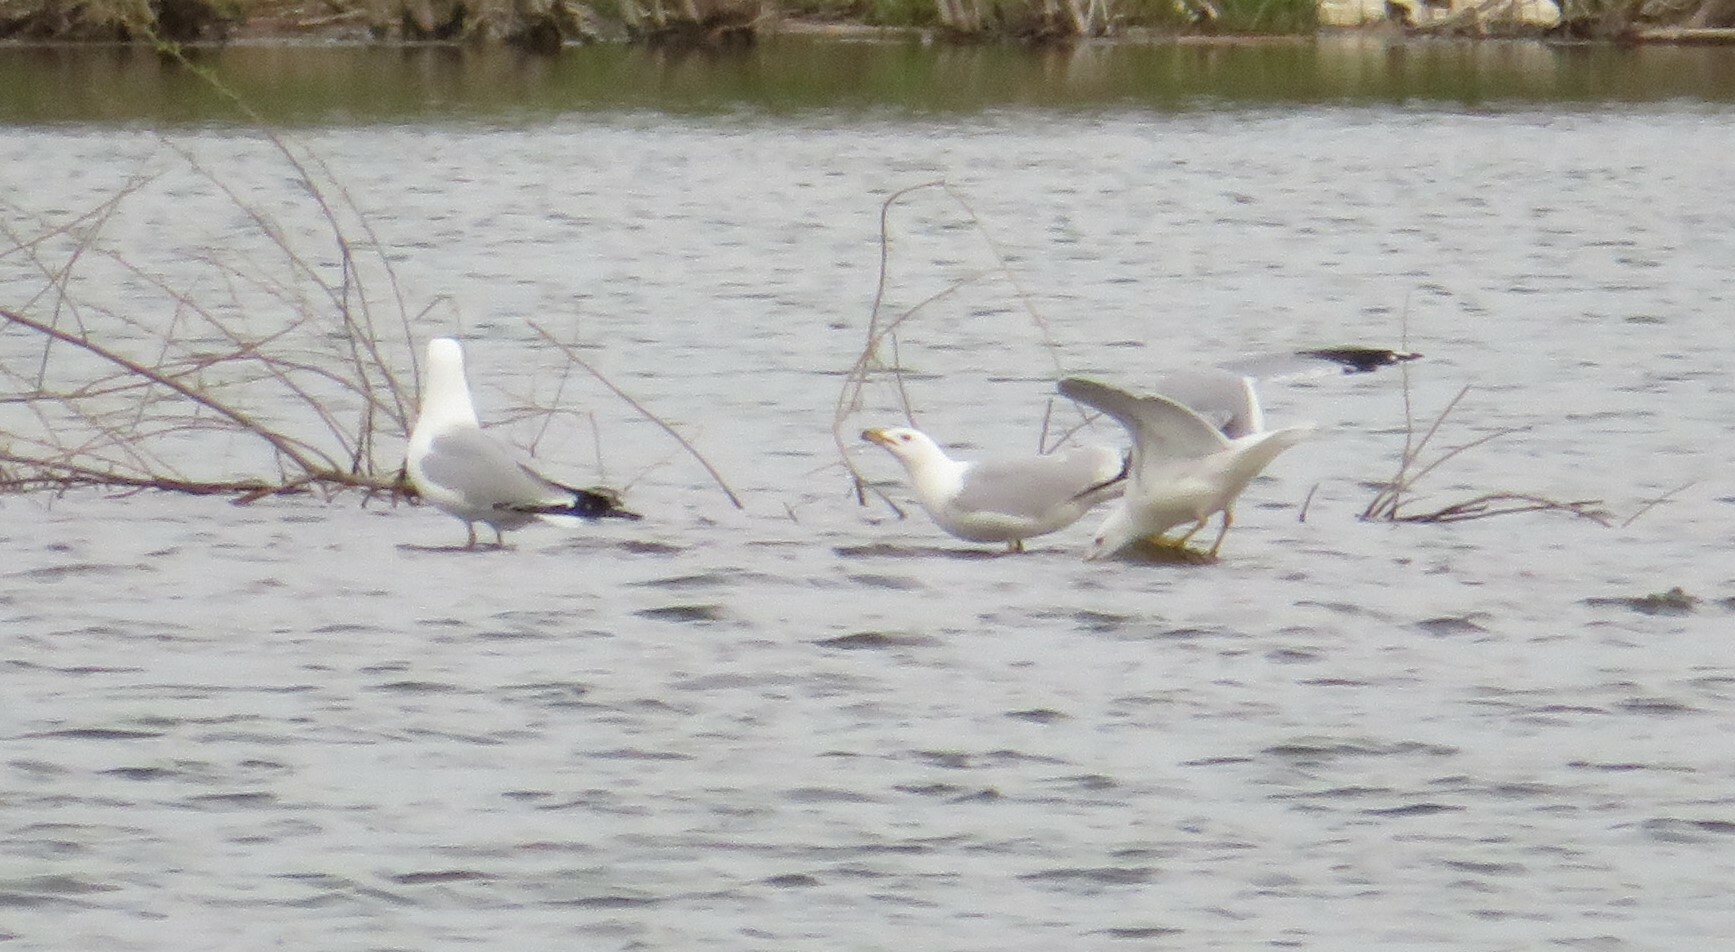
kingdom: Animalia
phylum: Chordata
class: Aves
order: Charadriiformes
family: Laridae
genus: Larus
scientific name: Larus delawarensis
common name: Ring-billed gull
